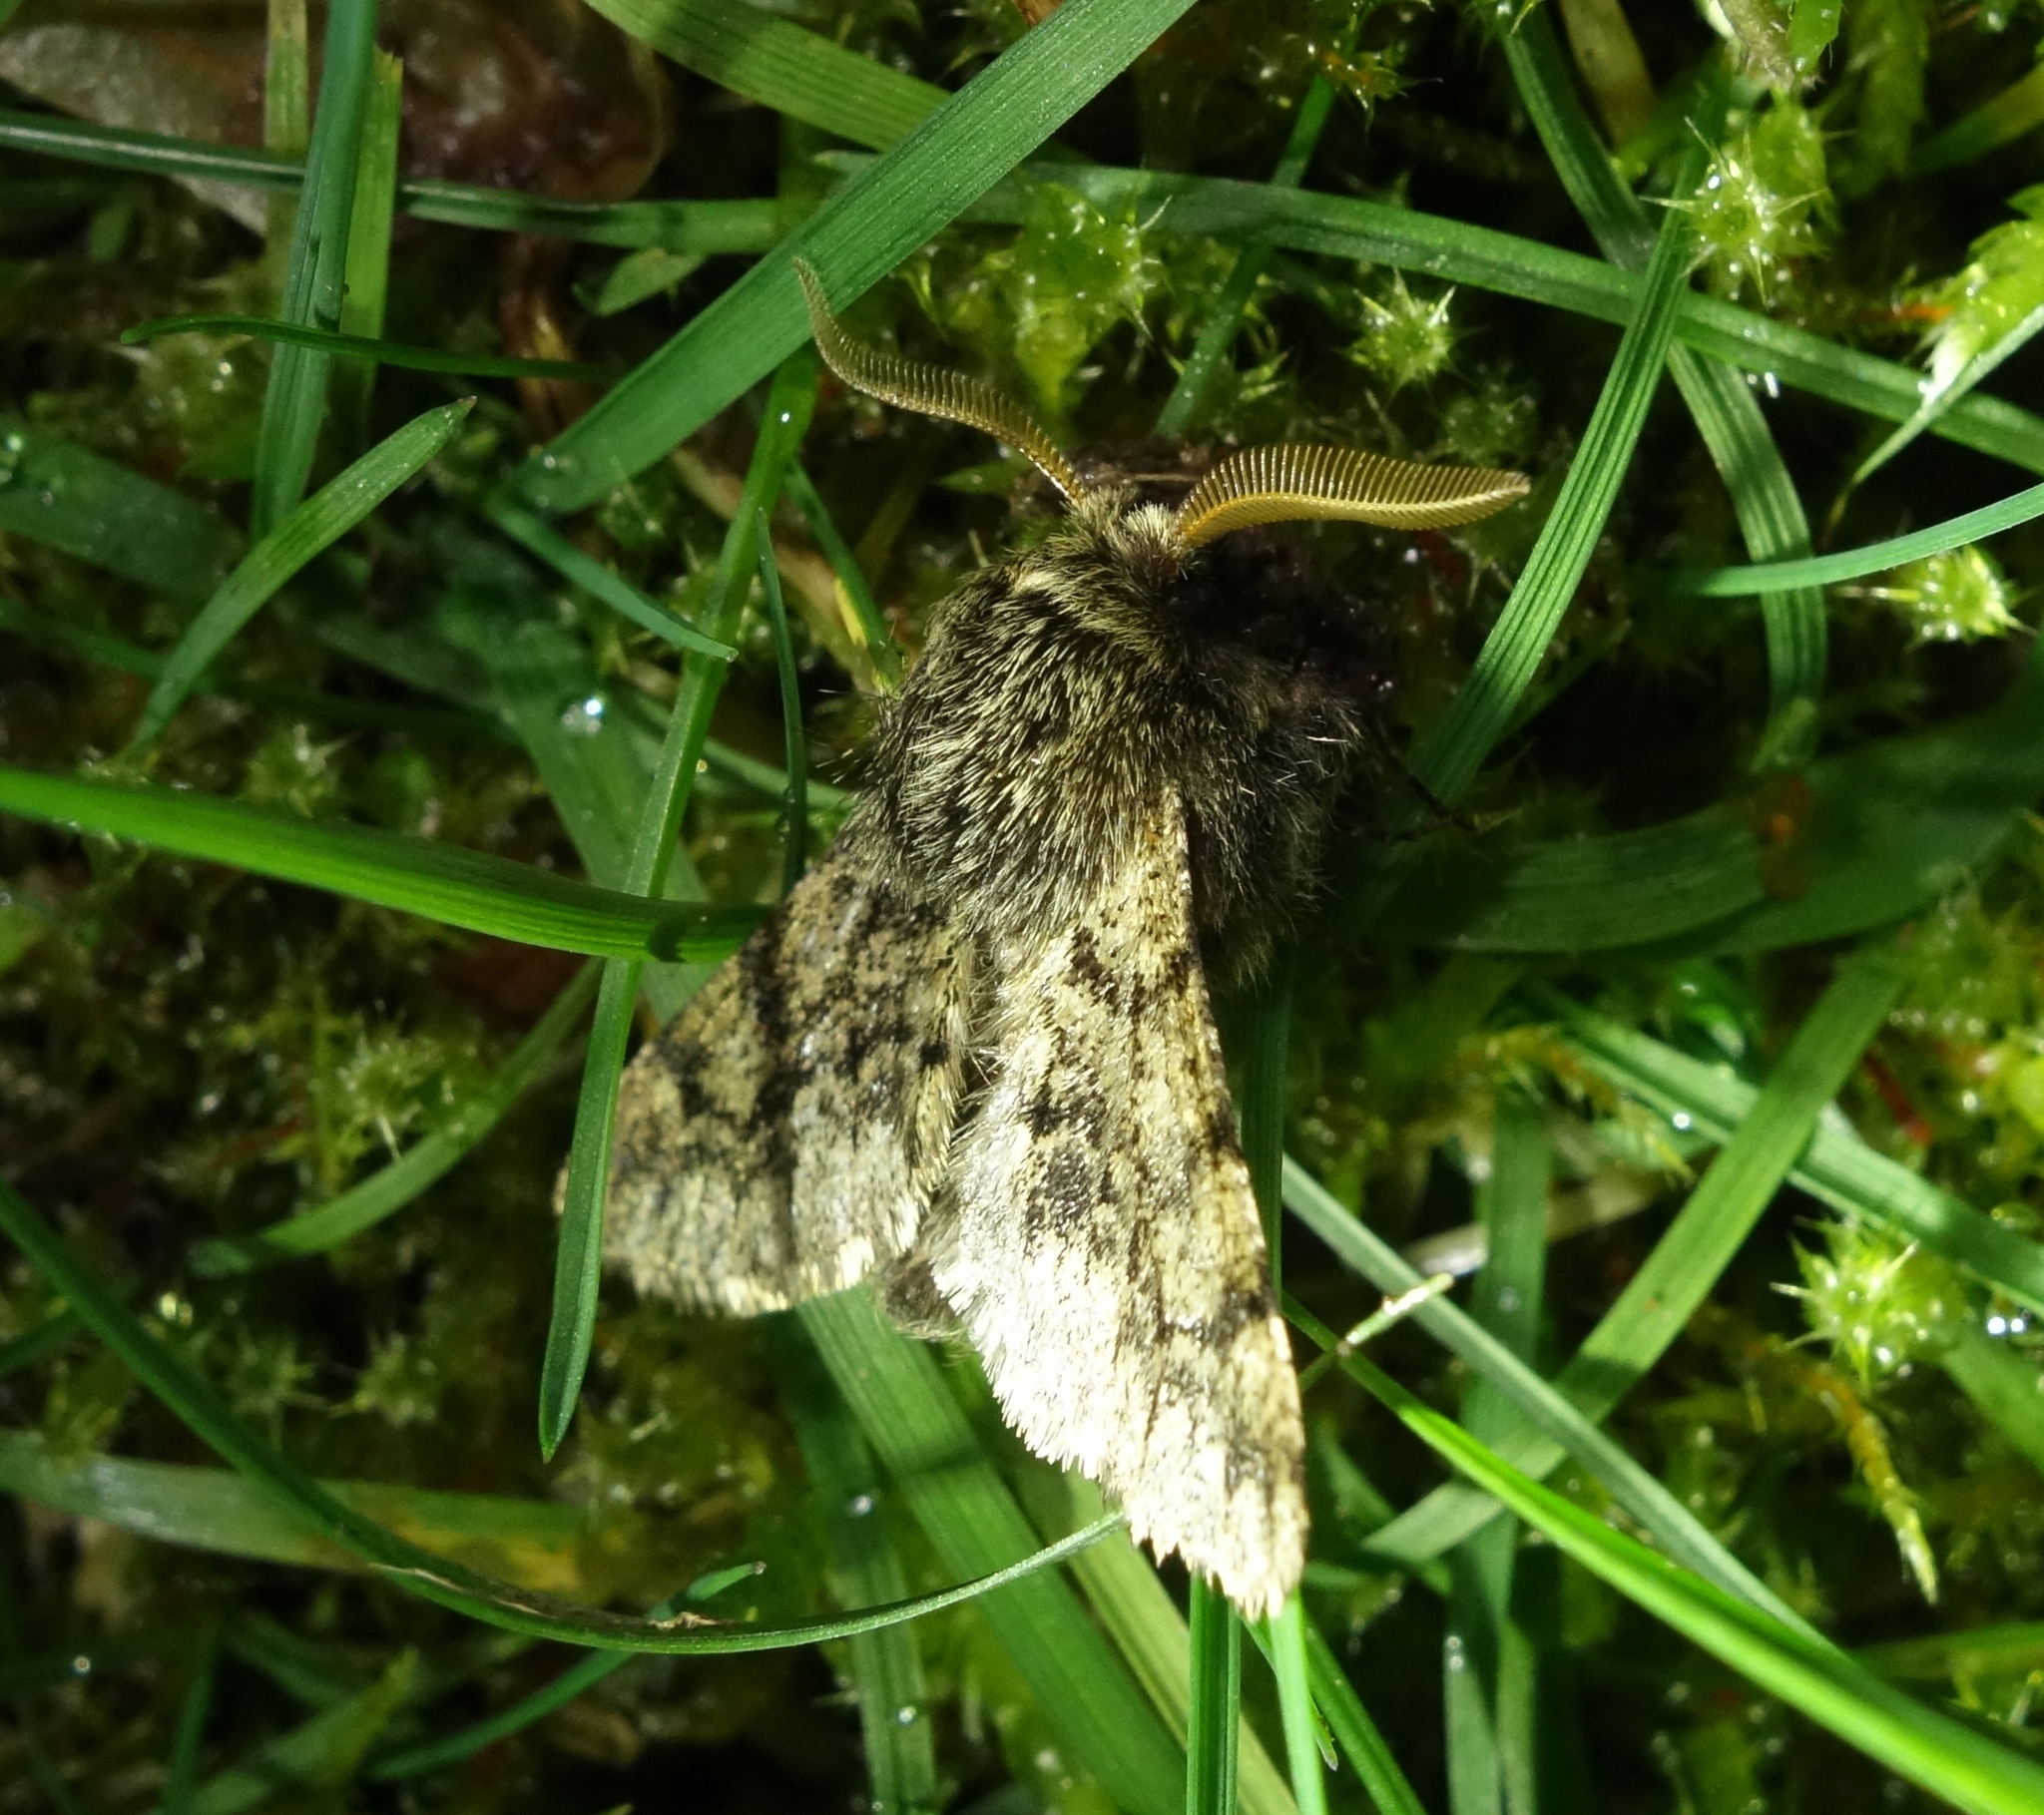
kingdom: Animalia
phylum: Arthropoda
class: Insecta
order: Lepidoptera
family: Geometridae
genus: Apocheima
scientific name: Apocheima hispidaria
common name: Small brindled beauty
